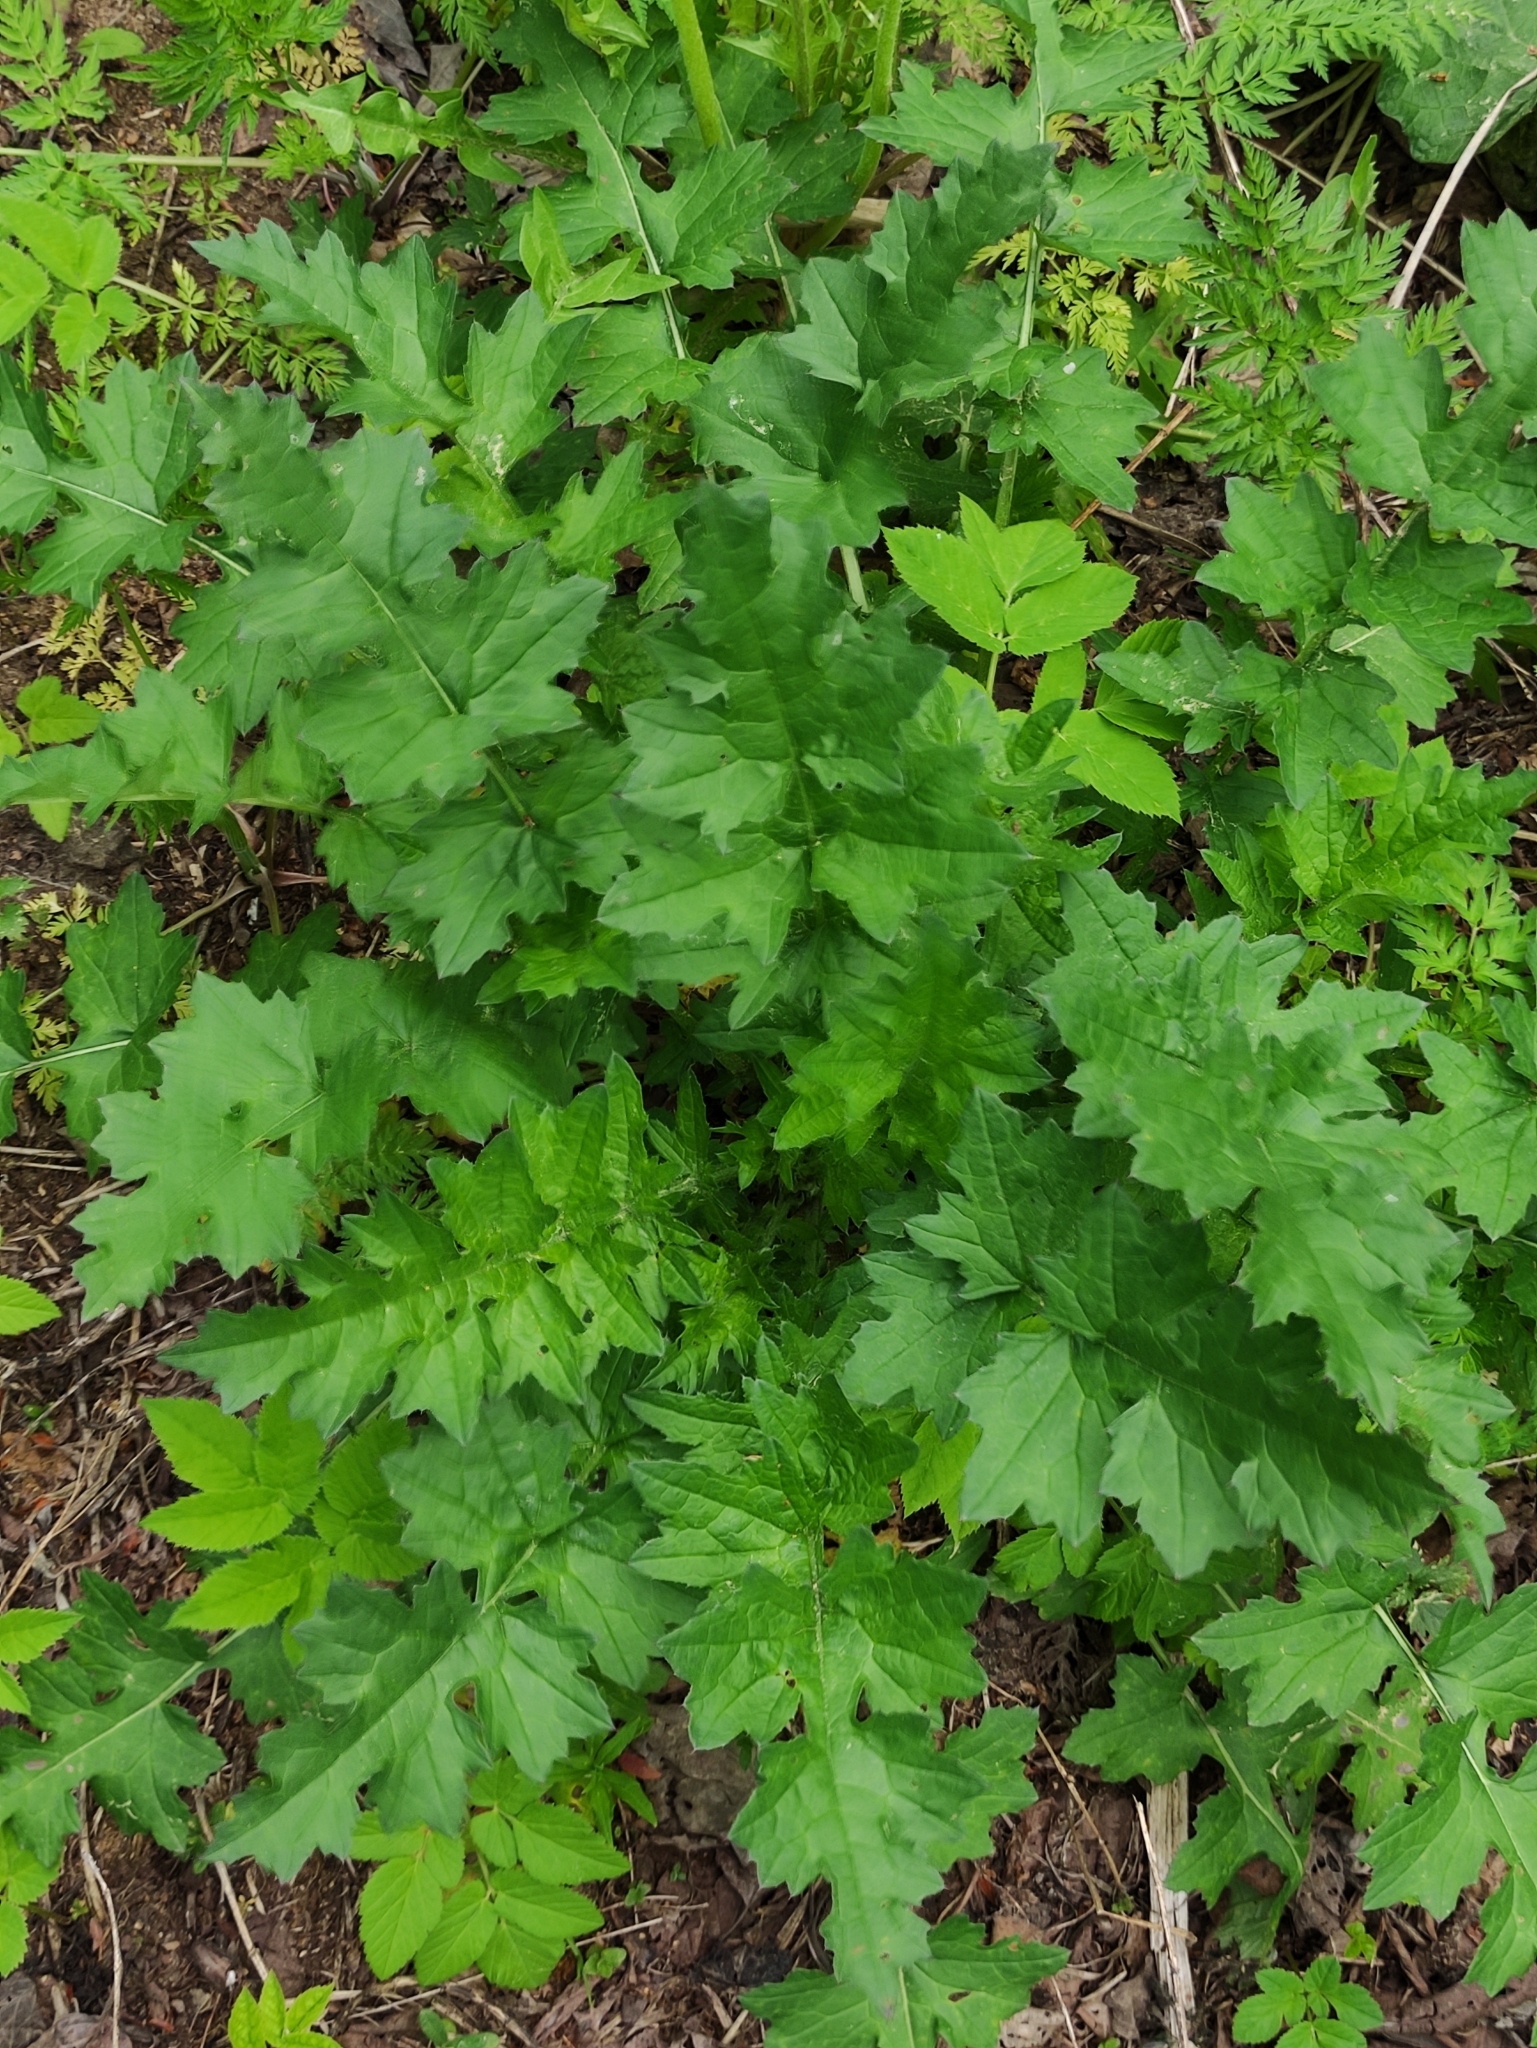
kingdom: Plantae
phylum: Tracheophyta
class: Magnoliopsida
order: Asterales
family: Asteraceae
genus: Carduus
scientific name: Carduus crispus
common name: Welted thistle
